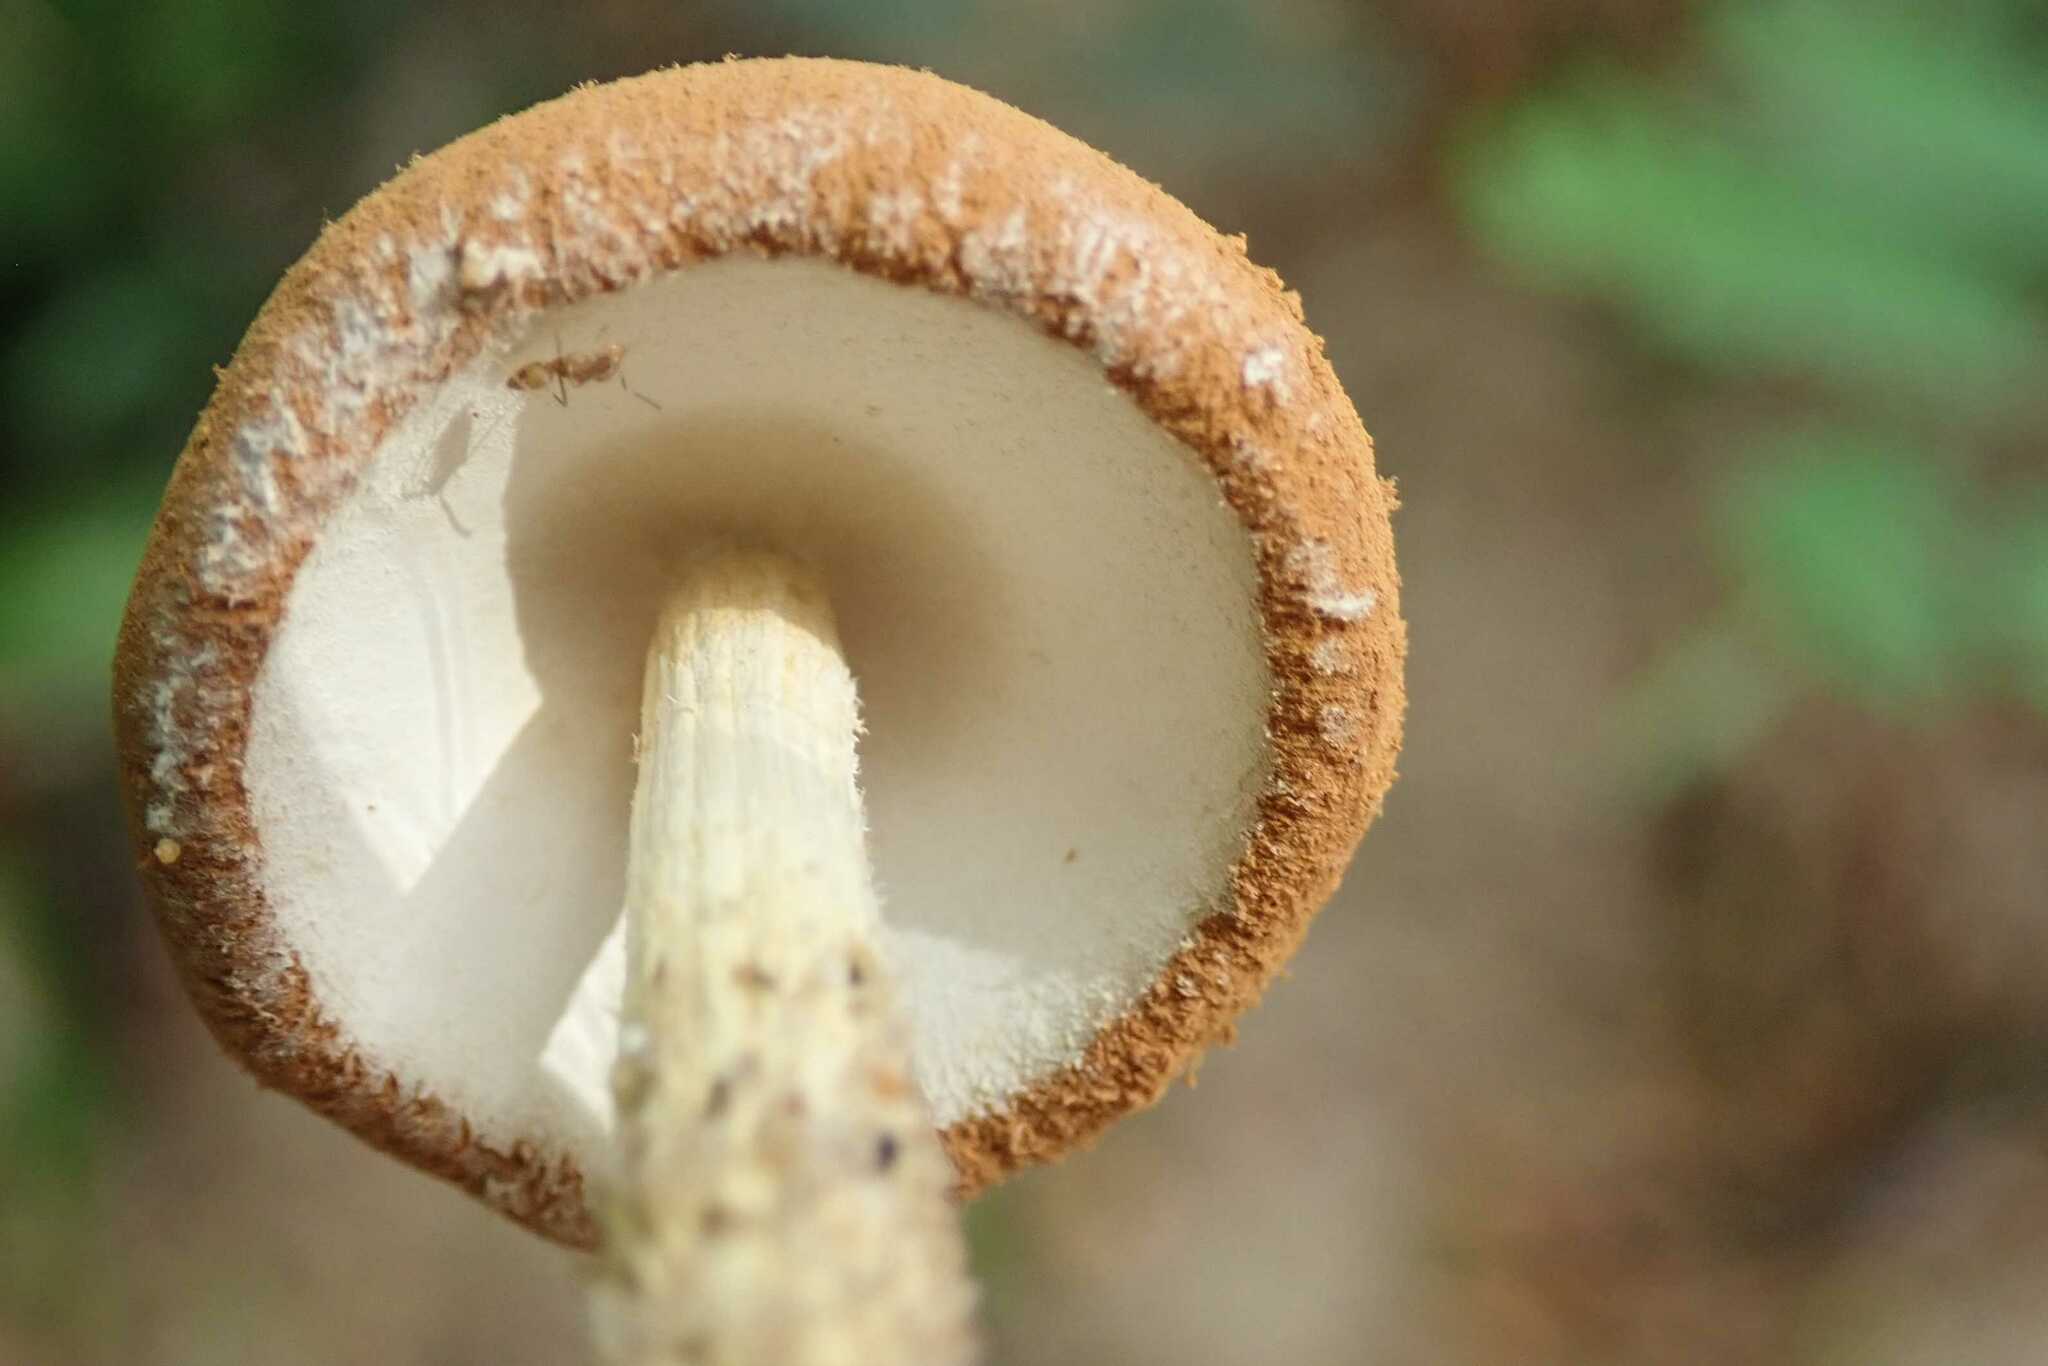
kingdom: Fungi
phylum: Basidiomycota
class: Agaricomycetes
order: Agaricales
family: Agaricaceae
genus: Battarrea
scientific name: Battarrea phalloides
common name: Sandy stiltball
